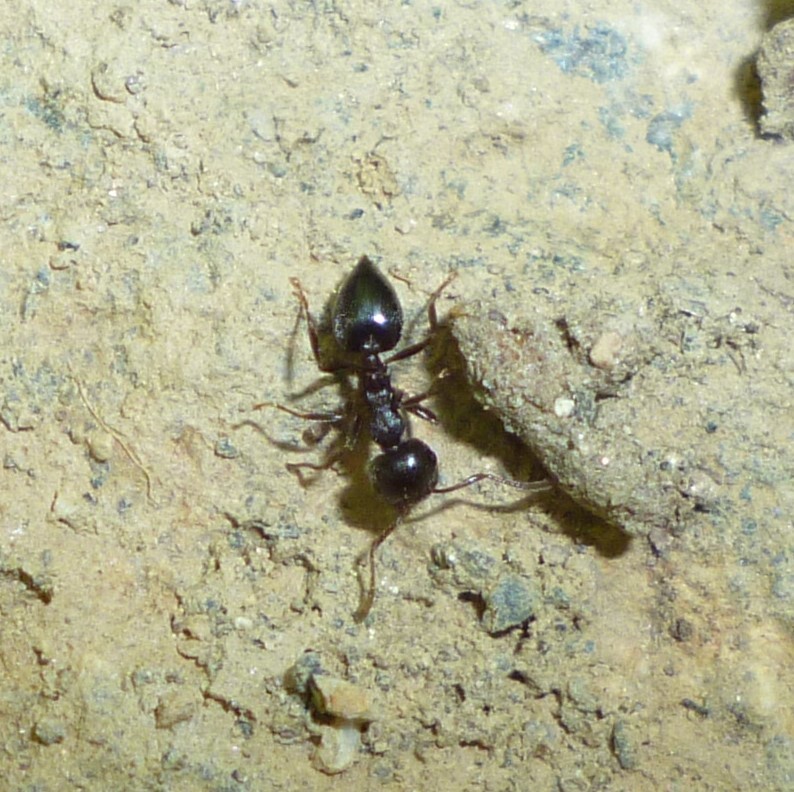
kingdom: Animalia
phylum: Arthropoda
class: Insecta
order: Hymenoptera
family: Formicidae
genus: Crematogaster
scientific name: Crematogaster
